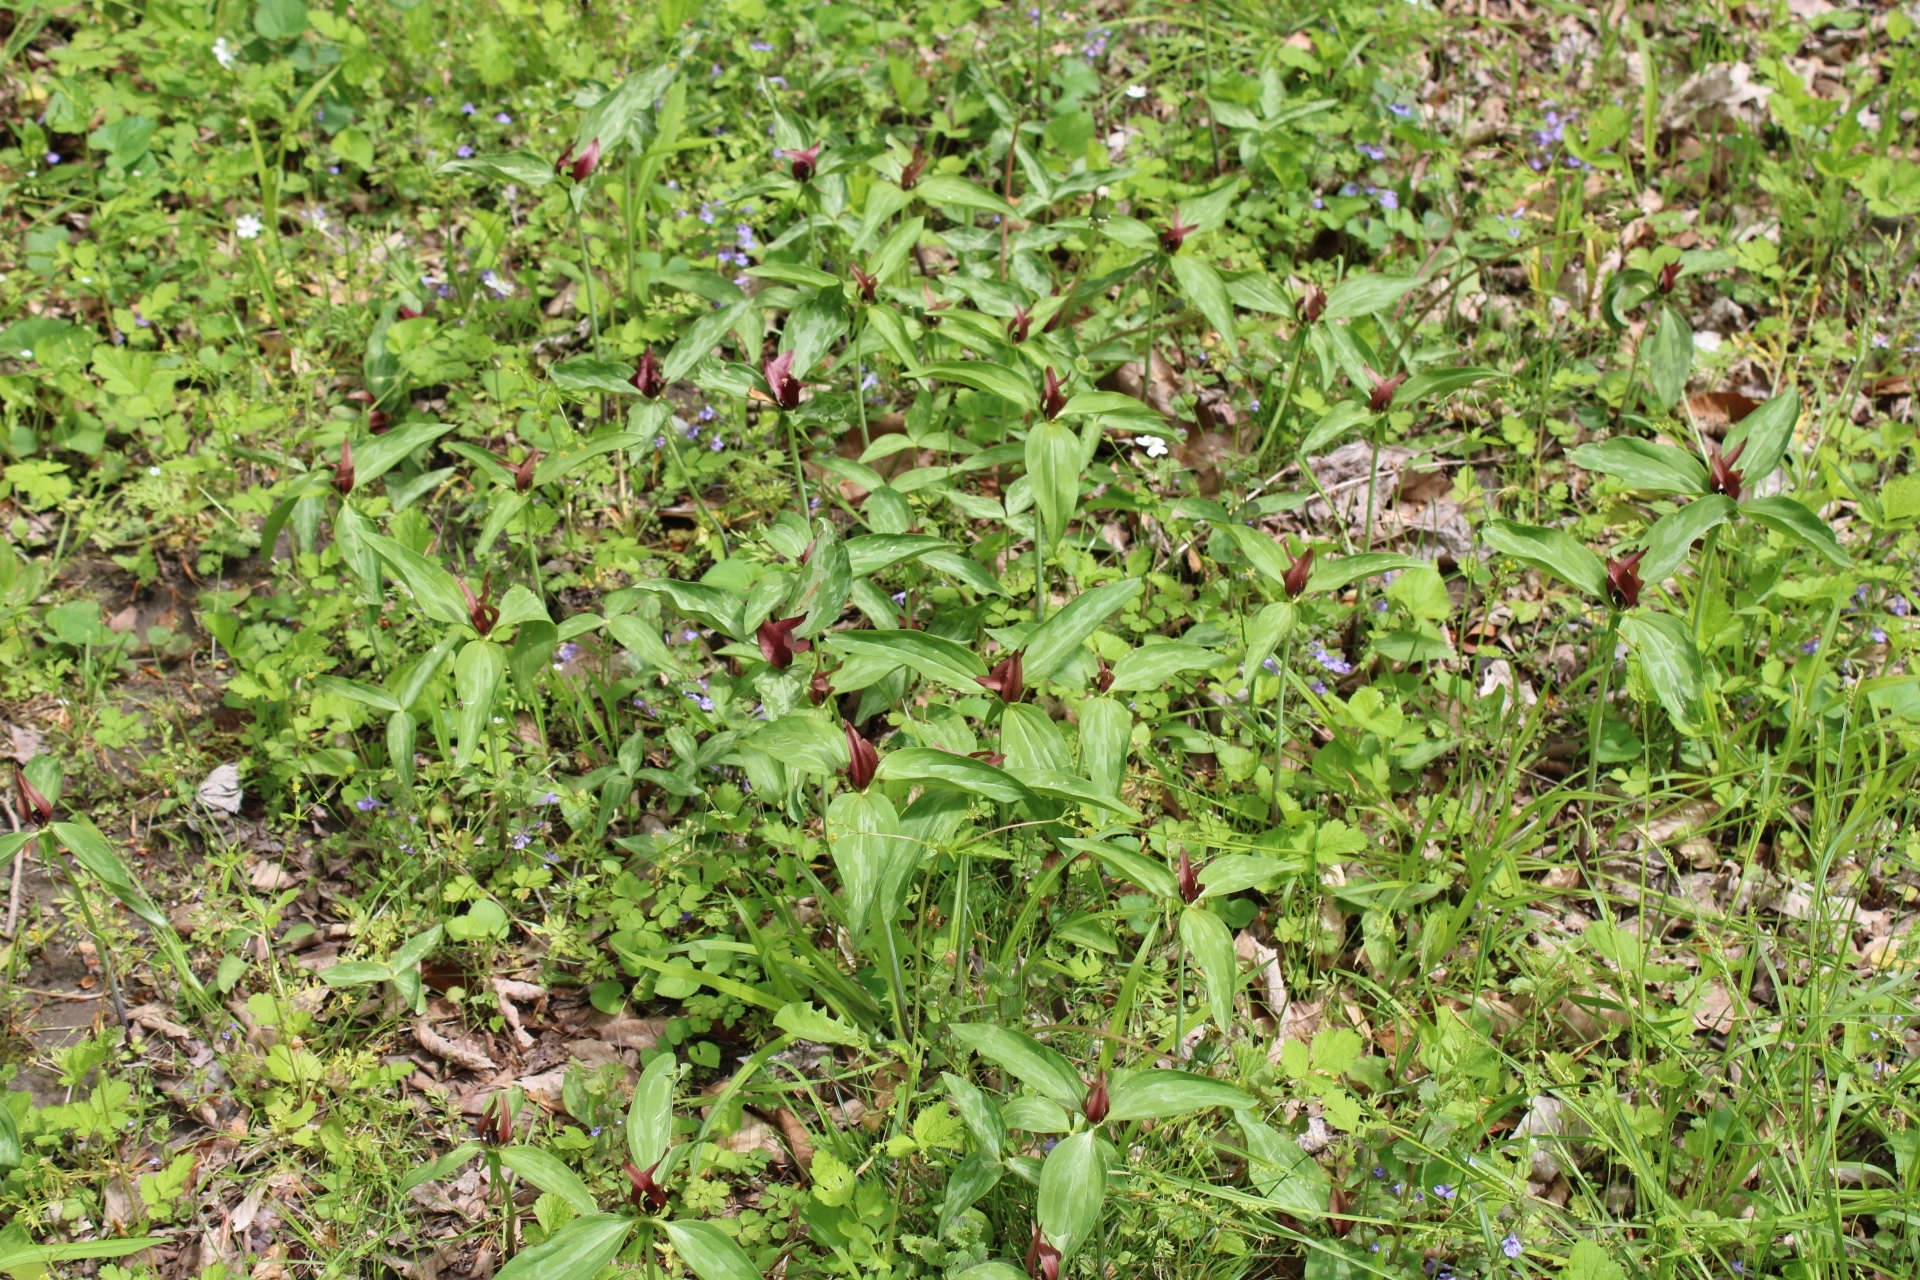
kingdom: Plantae
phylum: Tracheophyta
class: Liliopsida
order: Liliales
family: Melanthiaceae
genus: Trillium
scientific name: Trillium recurvatum
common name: Bloody butcher
